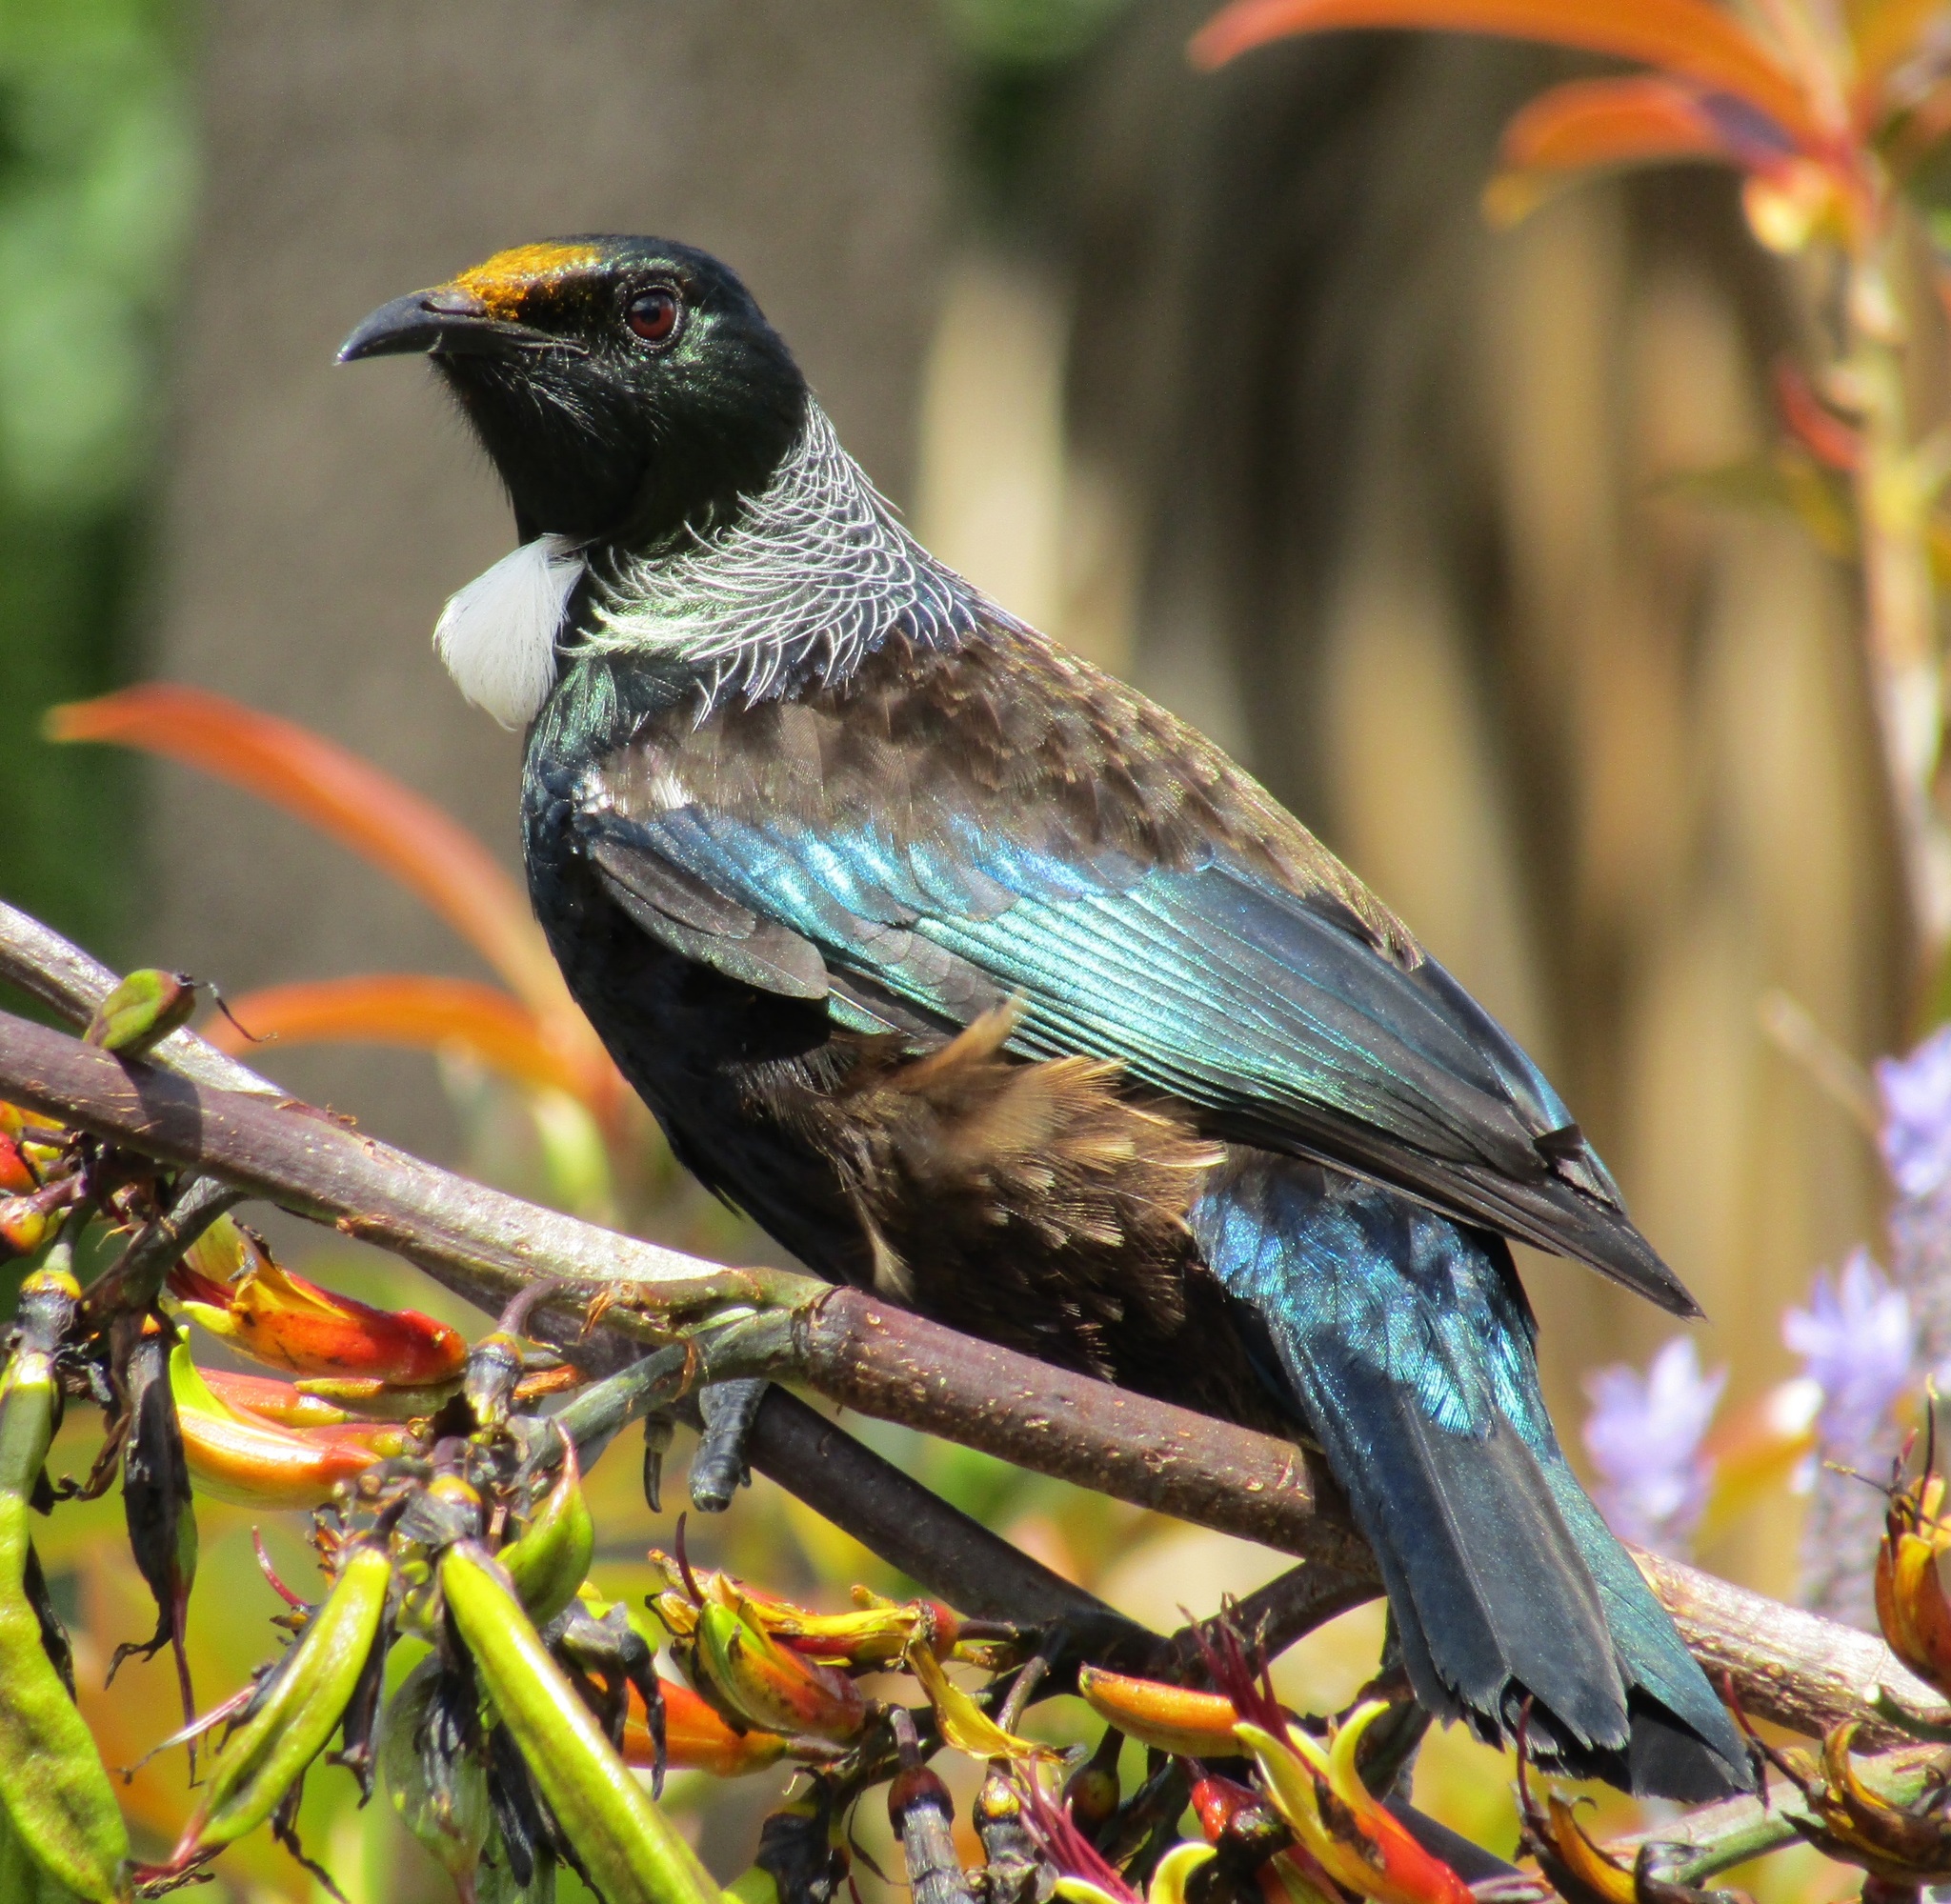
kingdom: Animalia
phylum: Chordata
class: Aves
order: Passeriformes
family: Meliphagidae
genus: Prosthemadera
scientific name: Prosthemadera novaeseelandiae
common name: Tui
